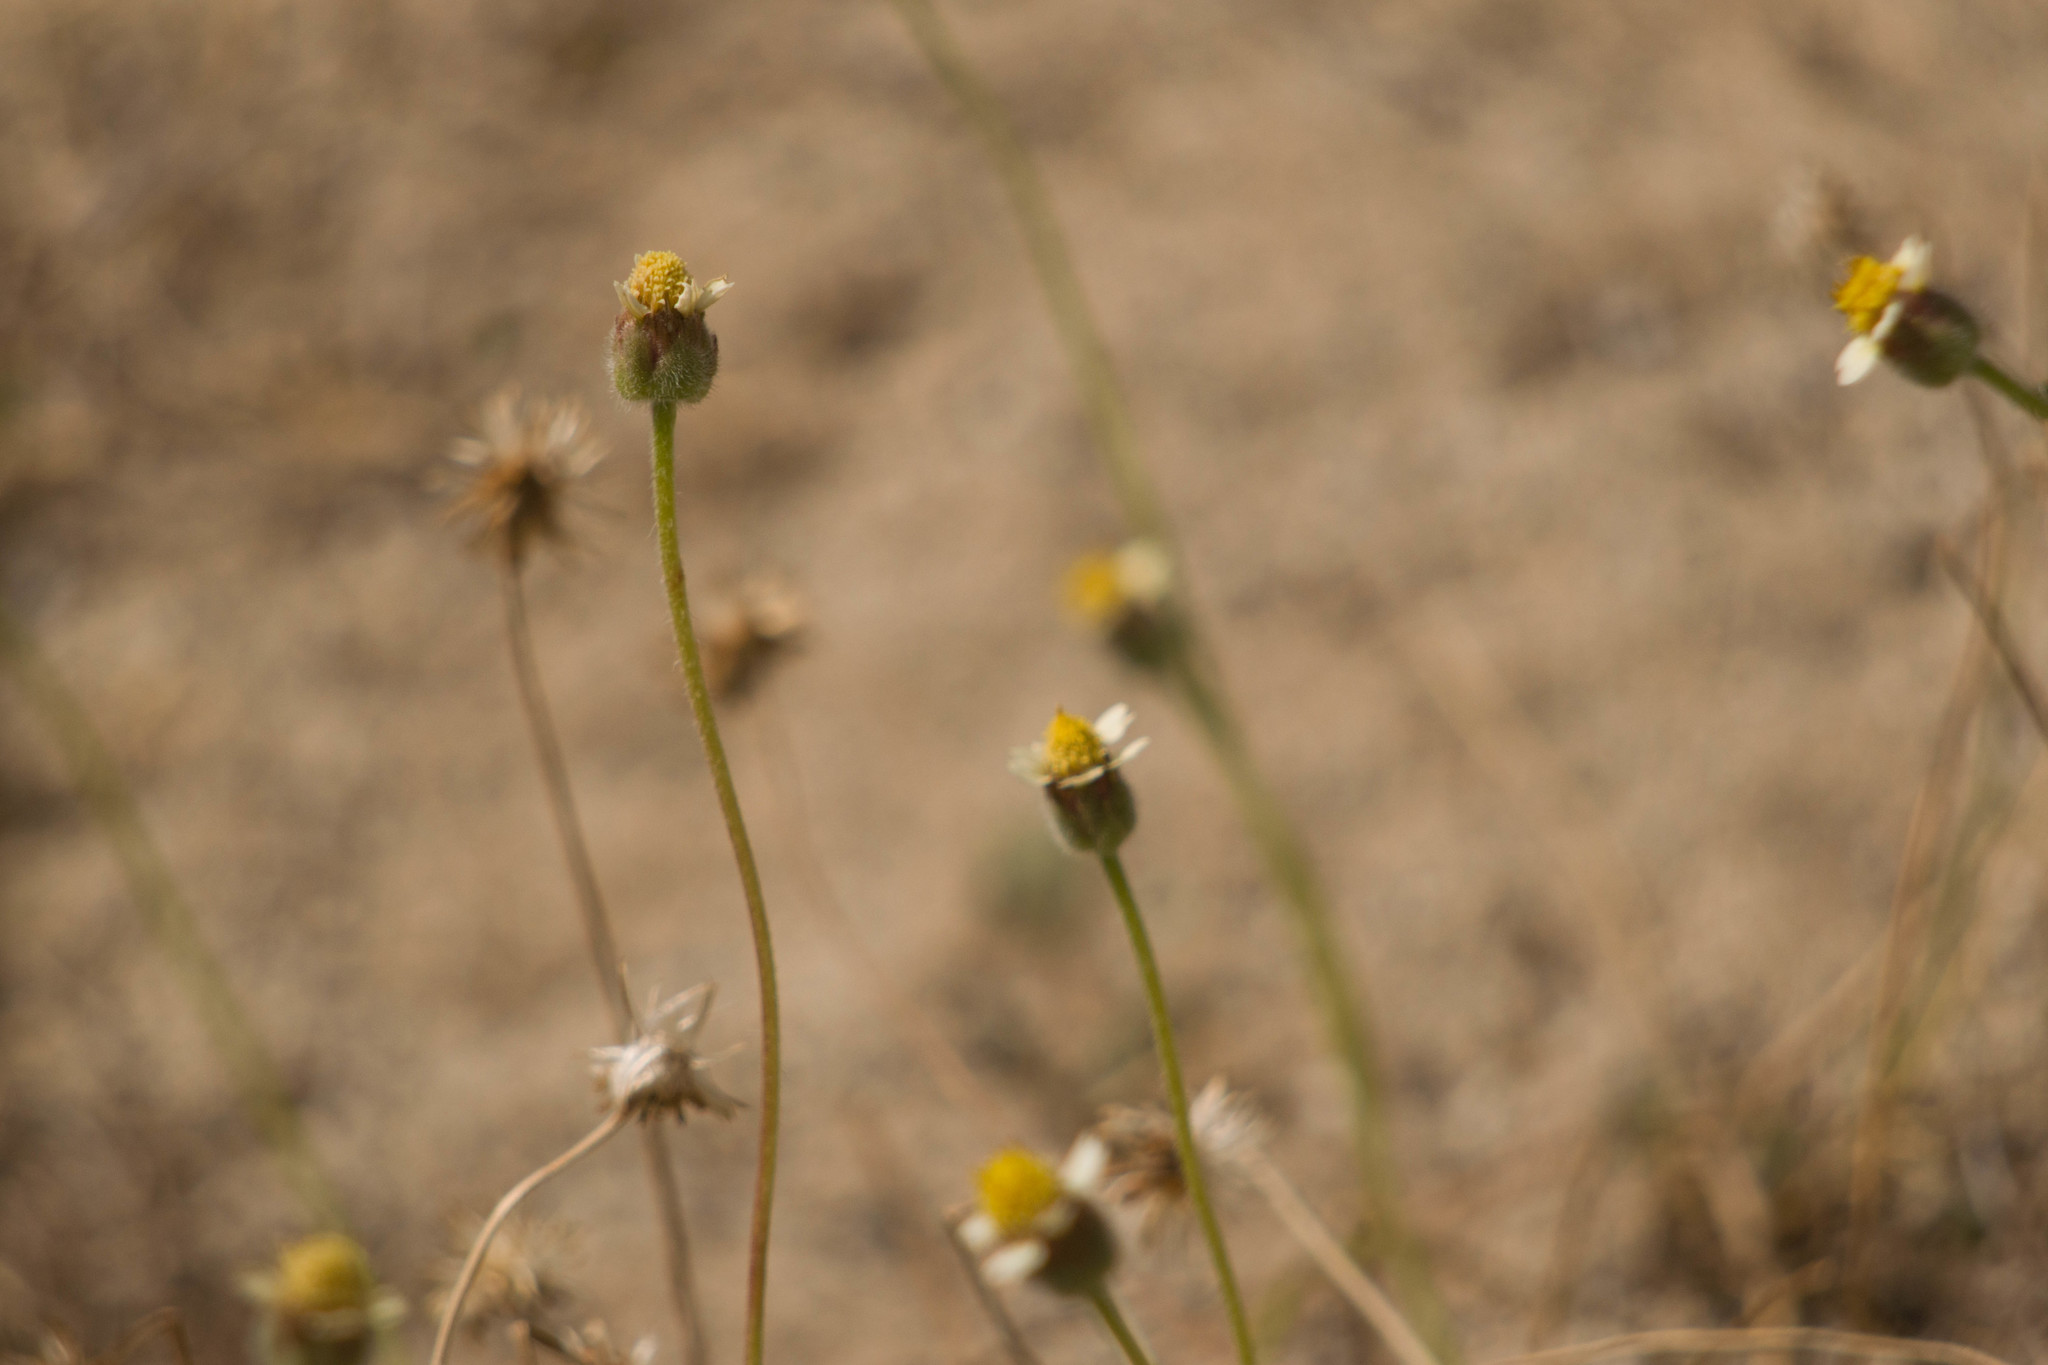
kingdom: Plantae
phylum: Tracheophyta
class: Magnoliopsida
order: Asterales
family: Asteraceae
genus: Tridax
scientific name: Tridax procumbens
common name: Coatbuttons
